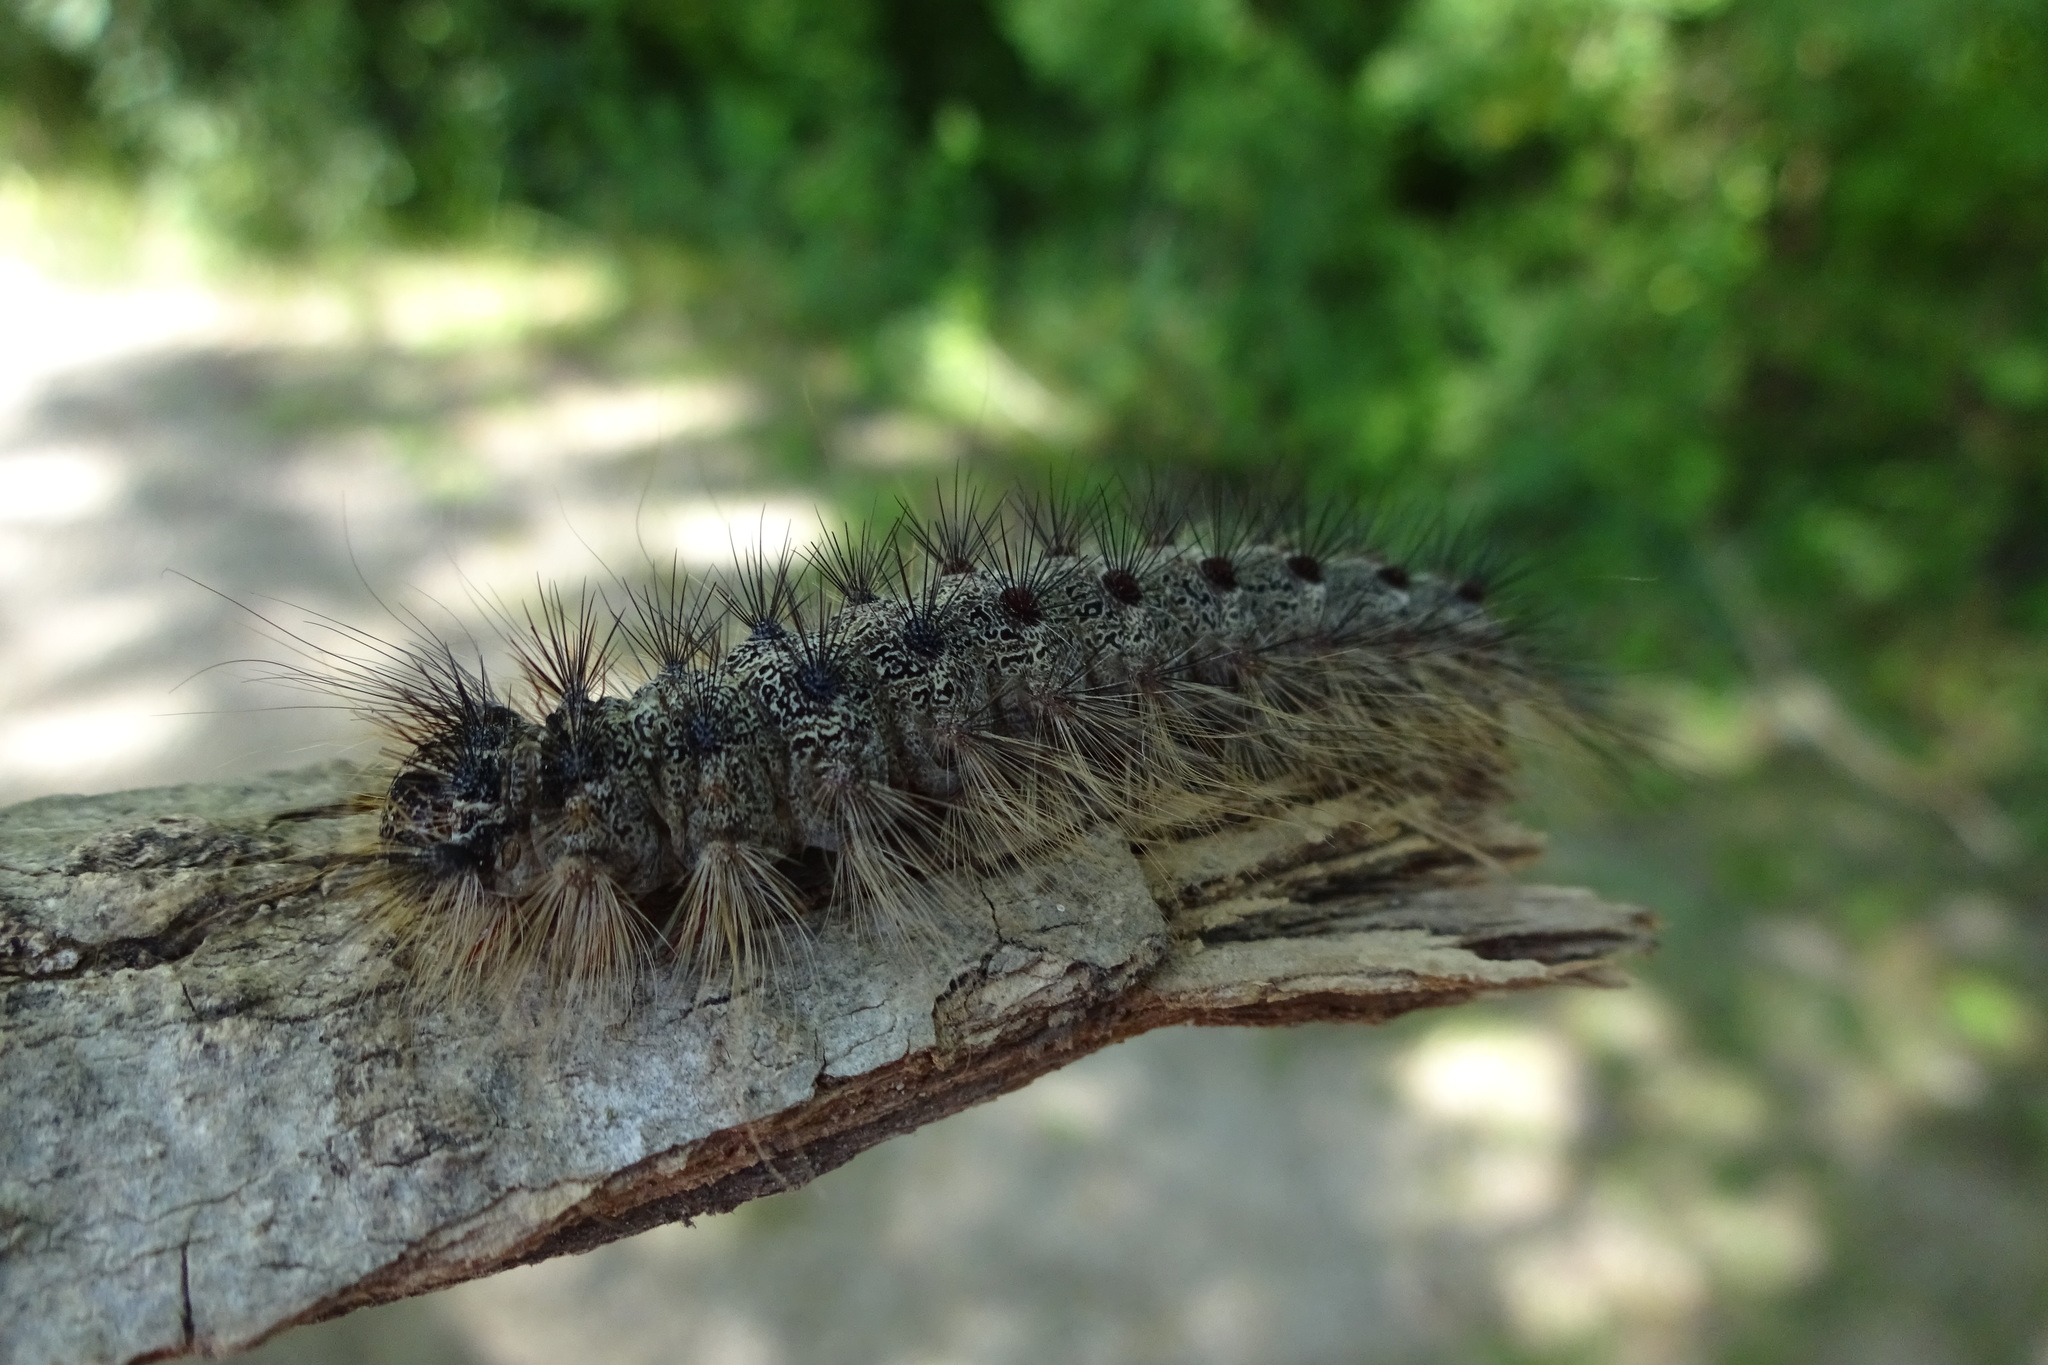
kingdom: Animalia
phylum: Arthropoda
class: Insecta
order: Lepidoptera
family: Erebidae
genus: Lymantria
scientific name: Lymantria dispar
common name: Gypsy moth
